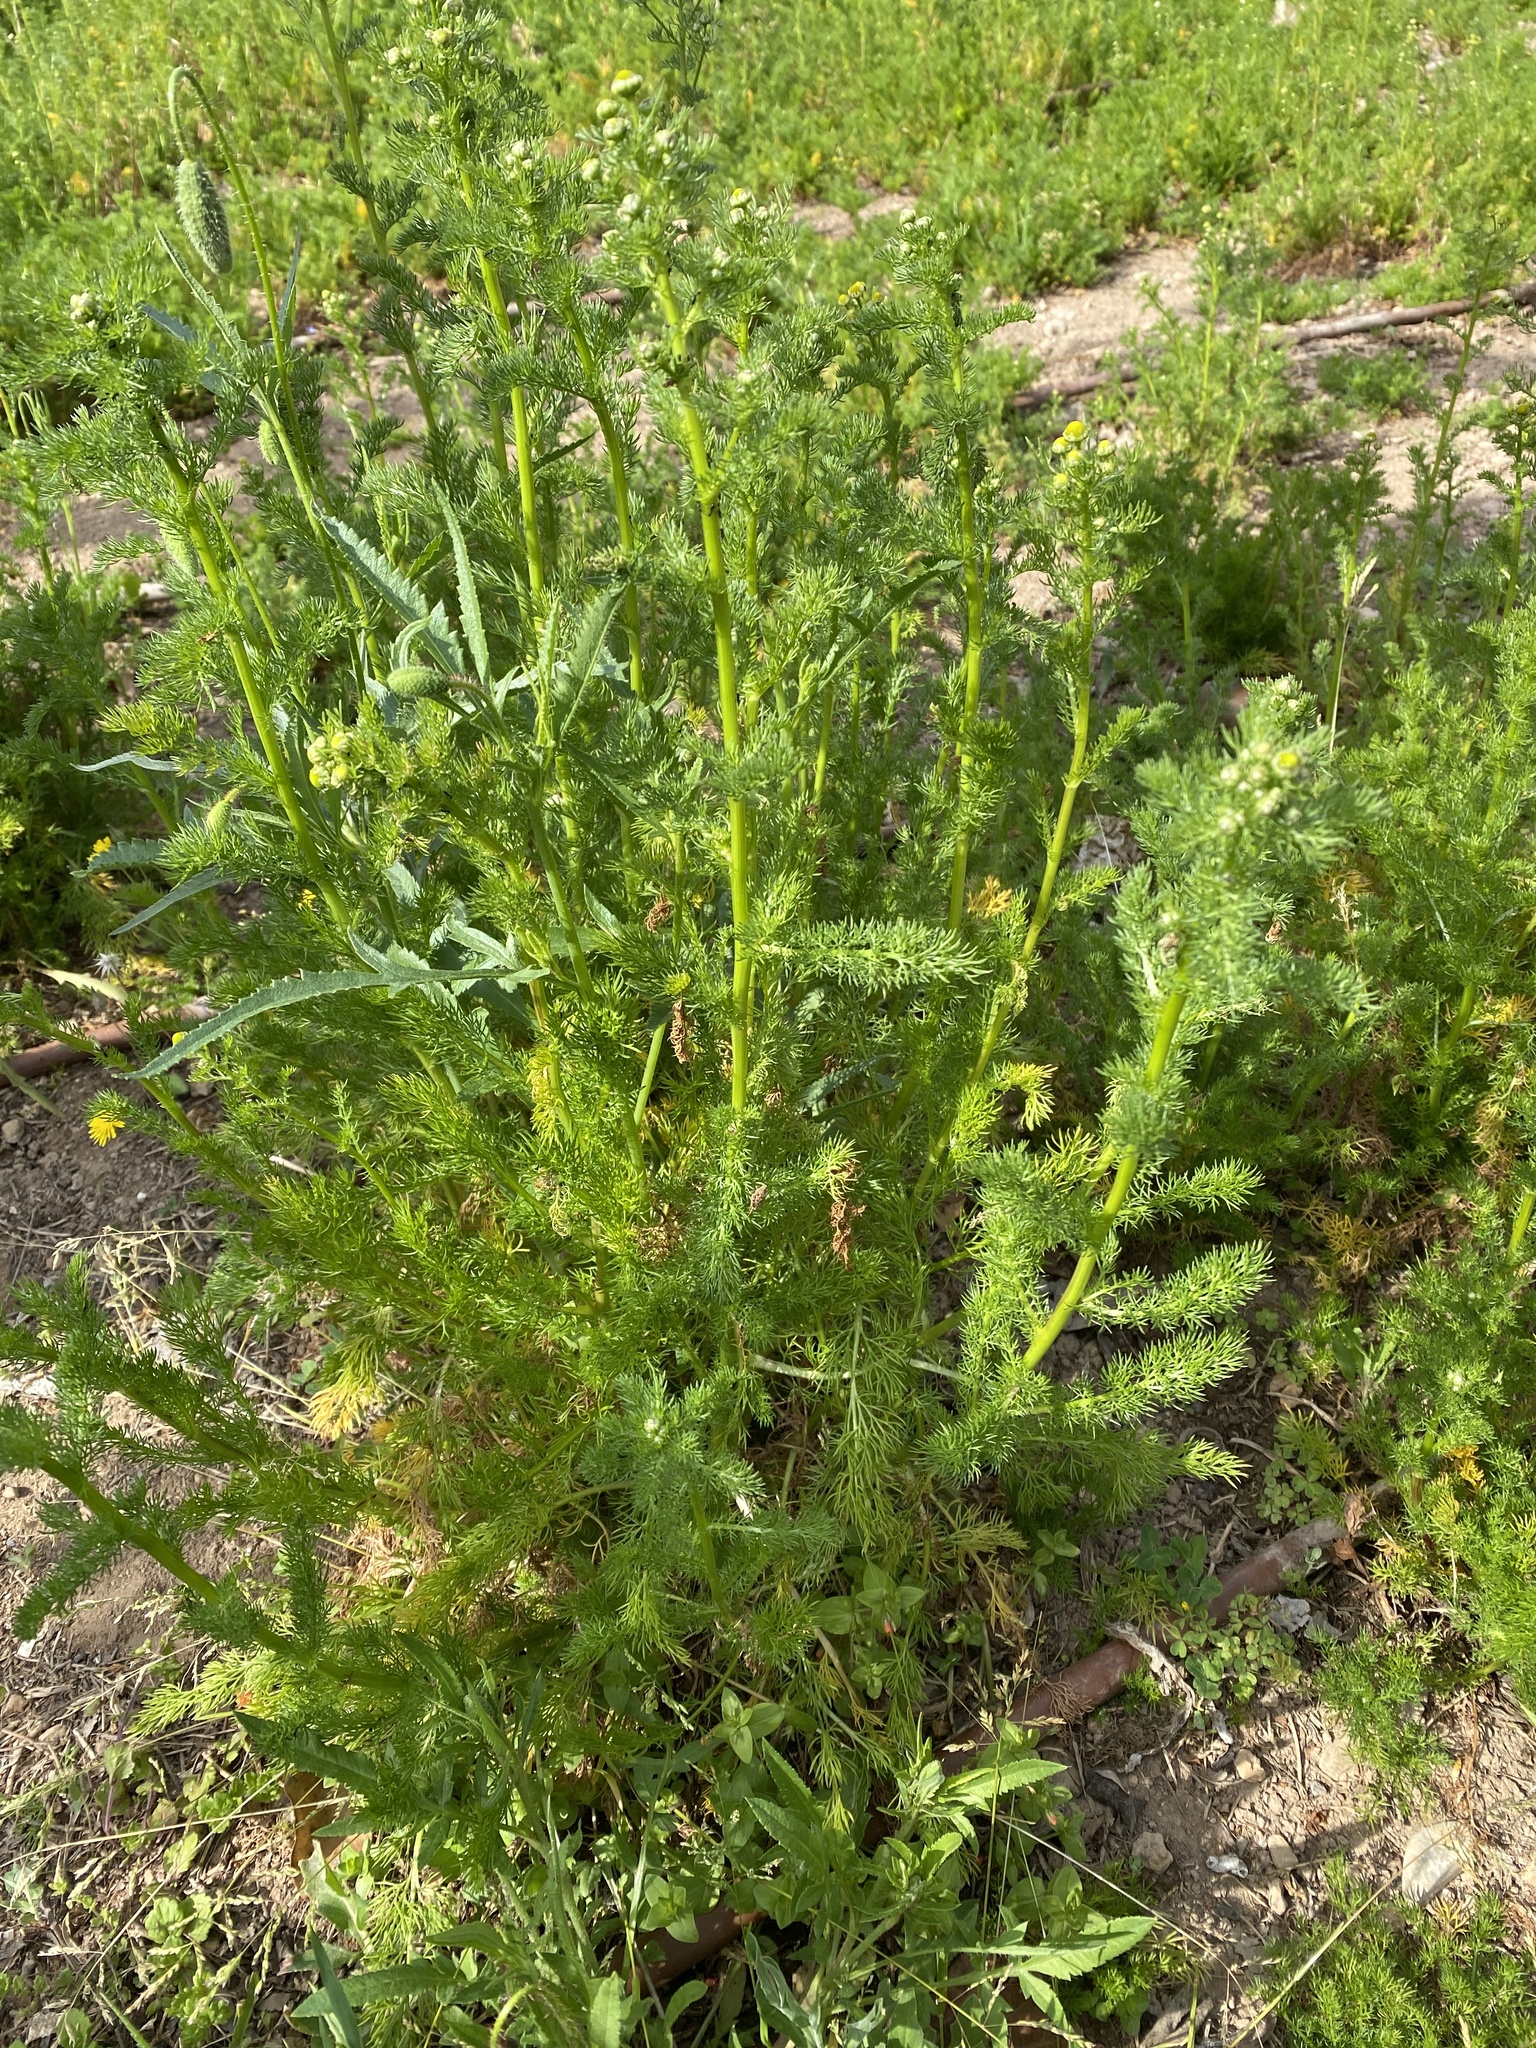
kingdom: Plantae
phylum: Tracheophyta
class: Magnoliopsida
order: Asterales
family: Asteraceae
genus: Matricaria
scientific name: Matricaria chamomilla
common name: Scented mayweed
